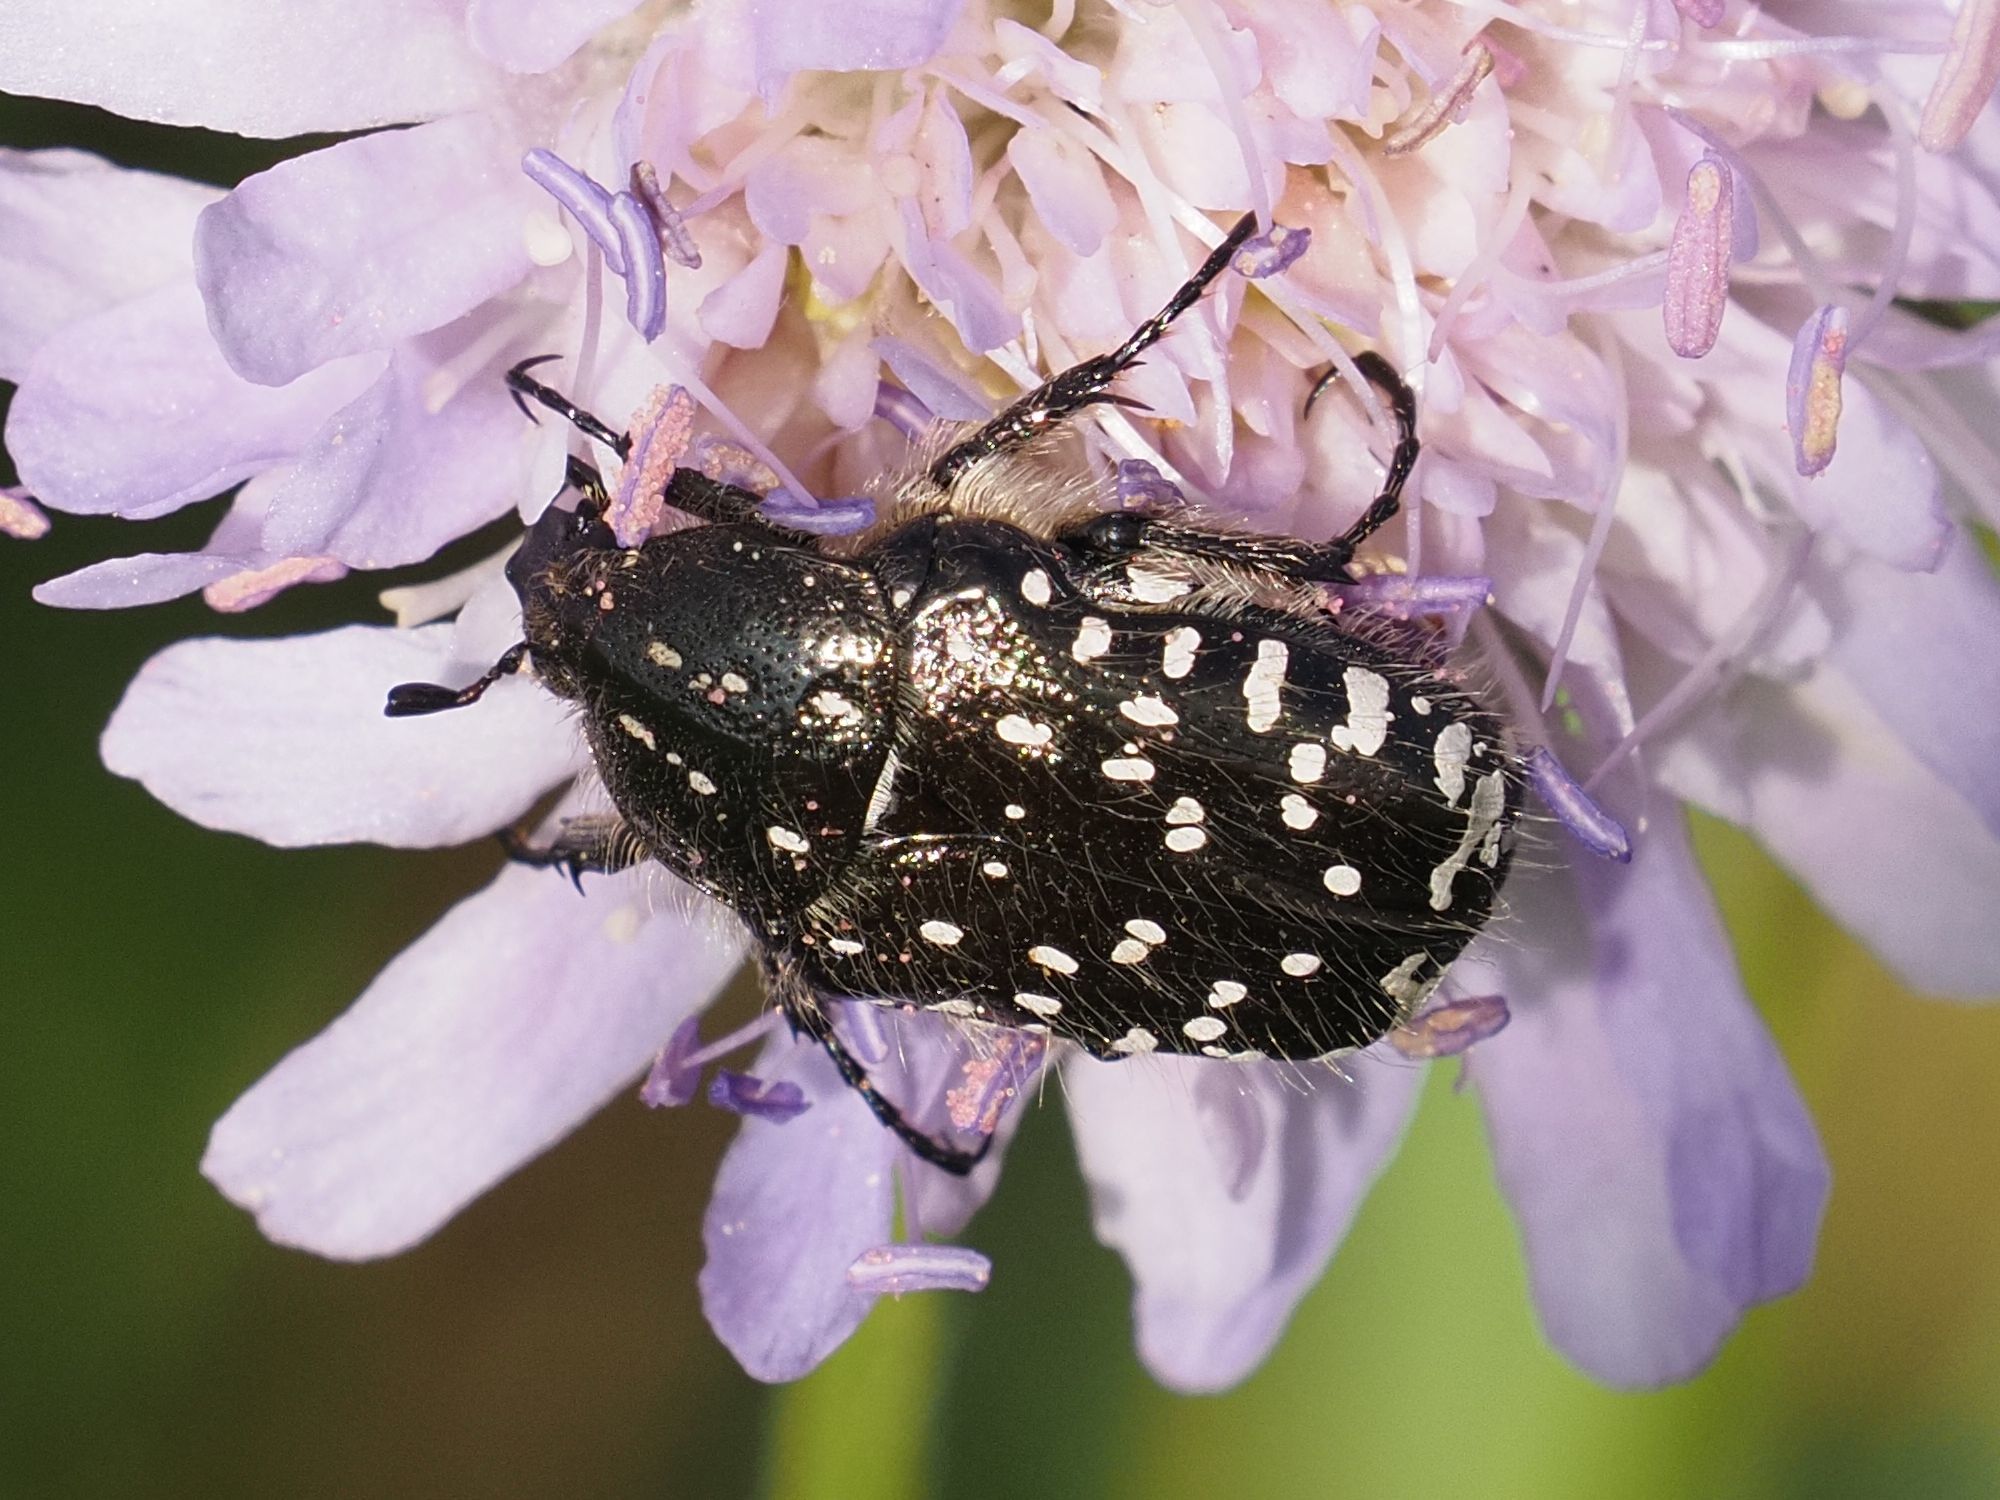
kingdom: Animalia
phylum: Arthropoda
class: Insecta
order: Coleoptera
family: Scarabaeidae
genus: Oxythyrea
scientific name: Oxythyrea funesta
